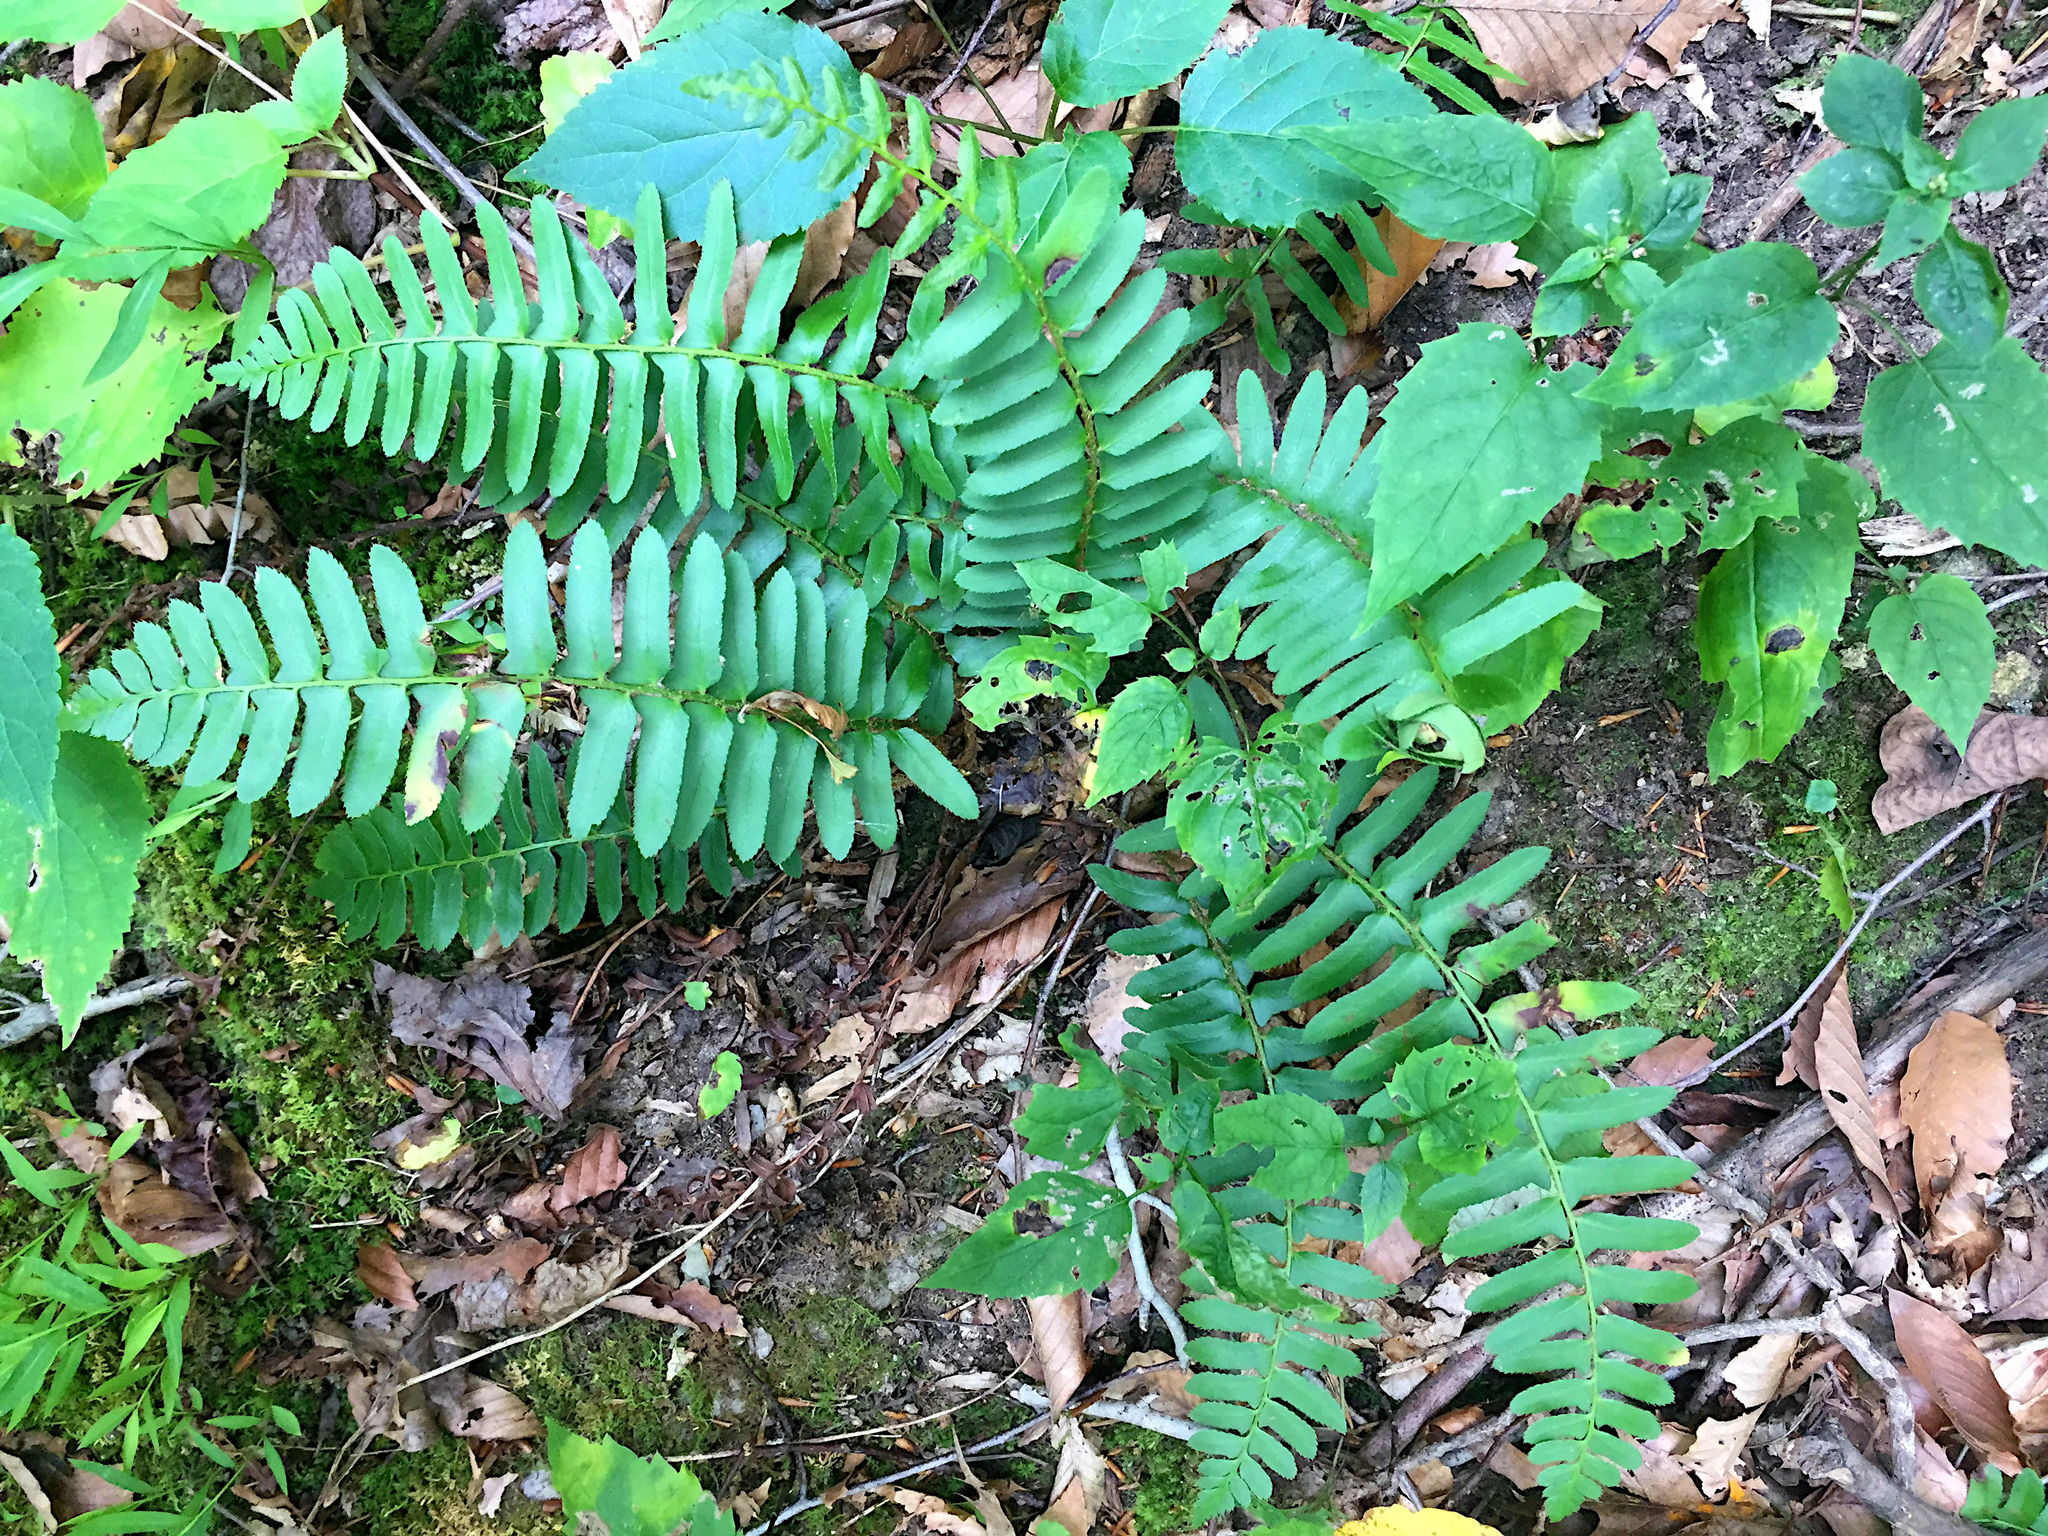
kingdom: Plantae
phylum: Tracheophyta
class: Polypodiopsida
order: Polypodiales
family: Dryopteridaceae
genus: Polystichum
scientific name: Polystichum acrostichoides
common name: Christmas fern
